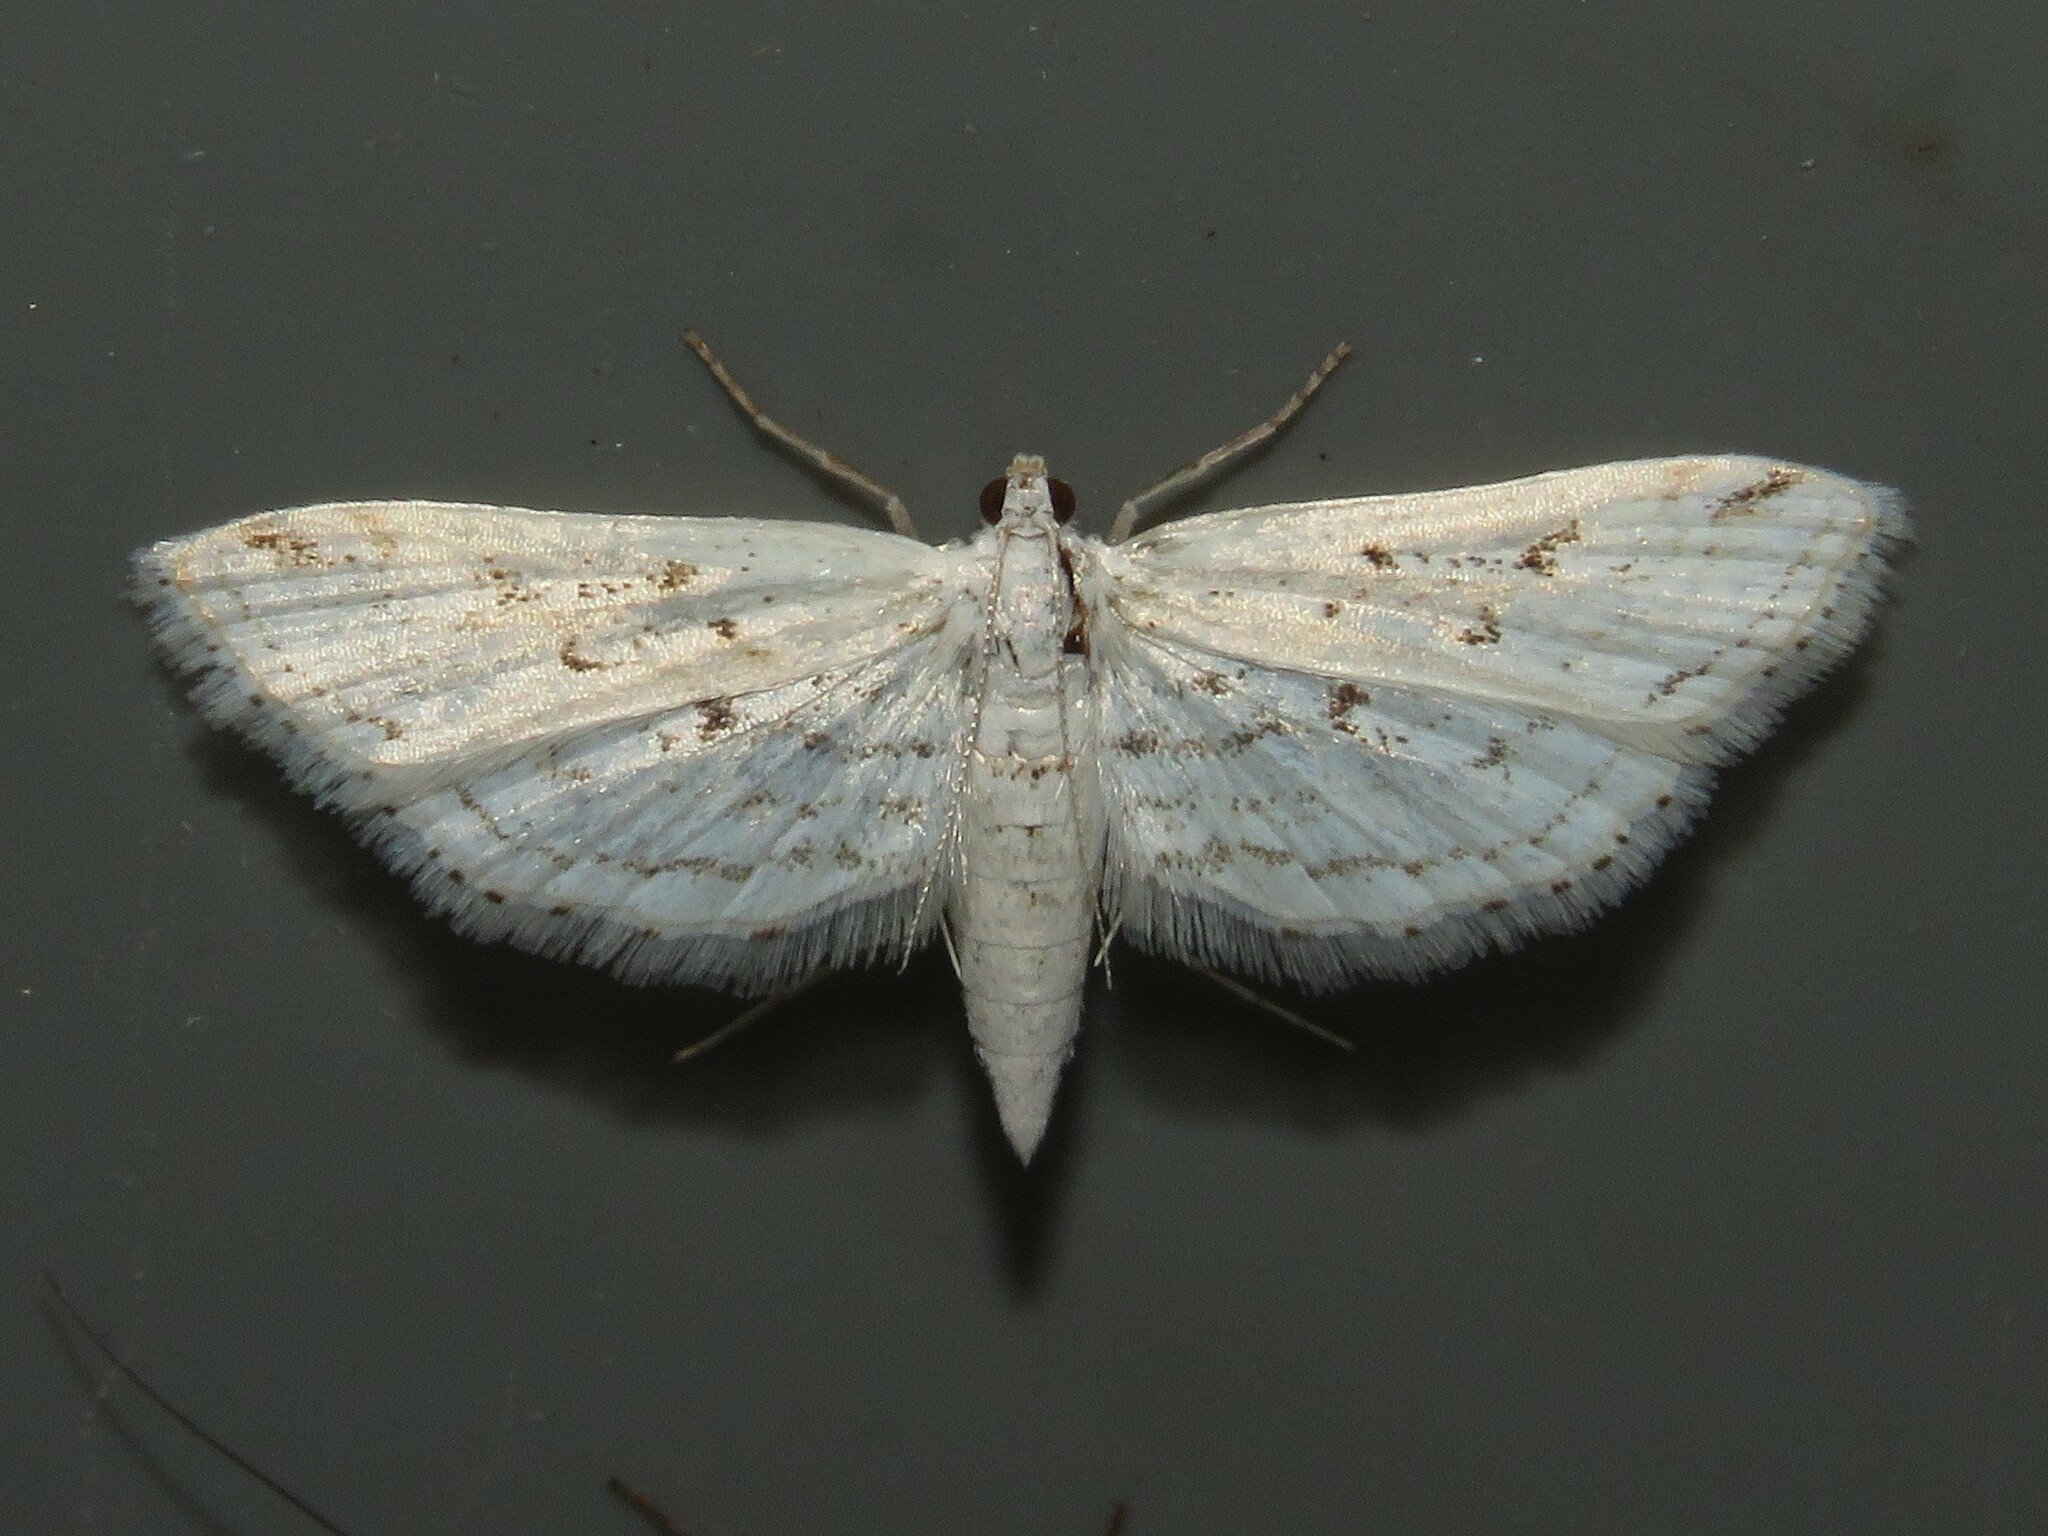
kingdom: Animalia
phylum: Arthropoda
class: Insecta
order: Lepidoptera
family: Crambidae
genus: Parapoynx
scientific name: Parapoynx allionealis
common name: Bladderwort casemaker
